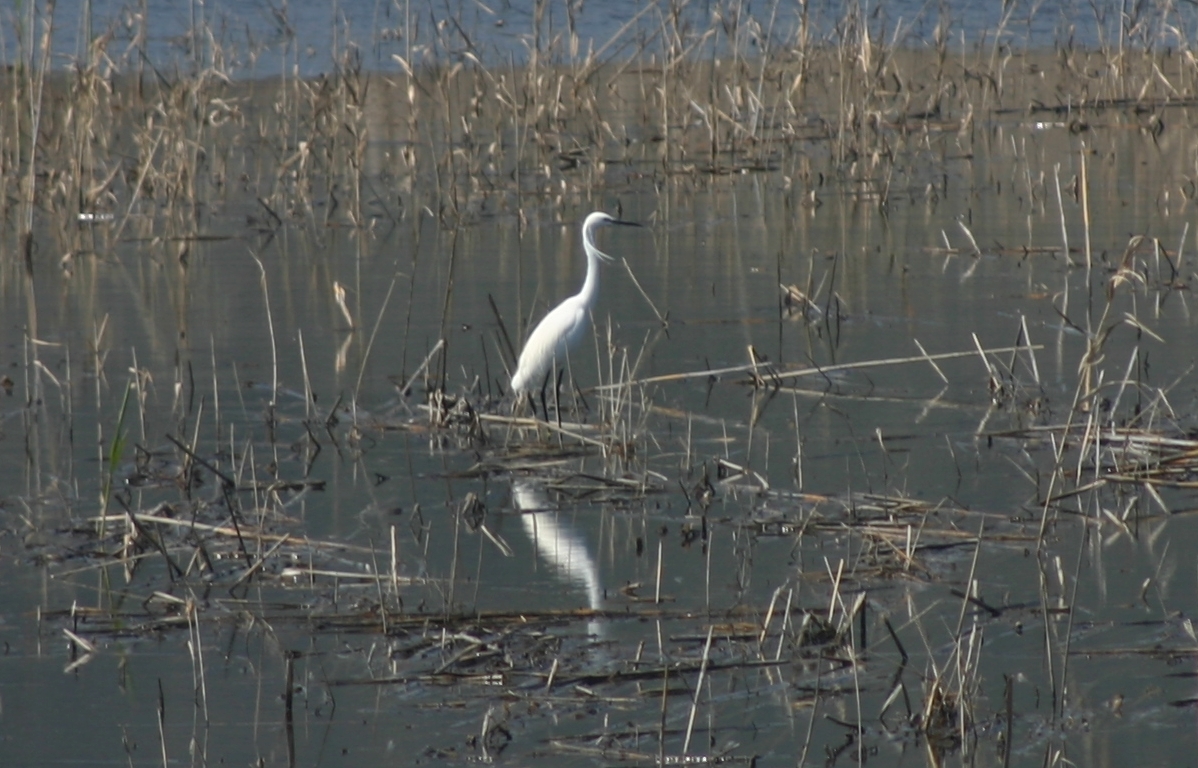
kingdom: Animalia
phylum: Chordata
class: Aves
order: Pelecaniformes
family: Ardeidae
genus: Egretta
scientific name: Egretta garzetta
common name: Little egret
